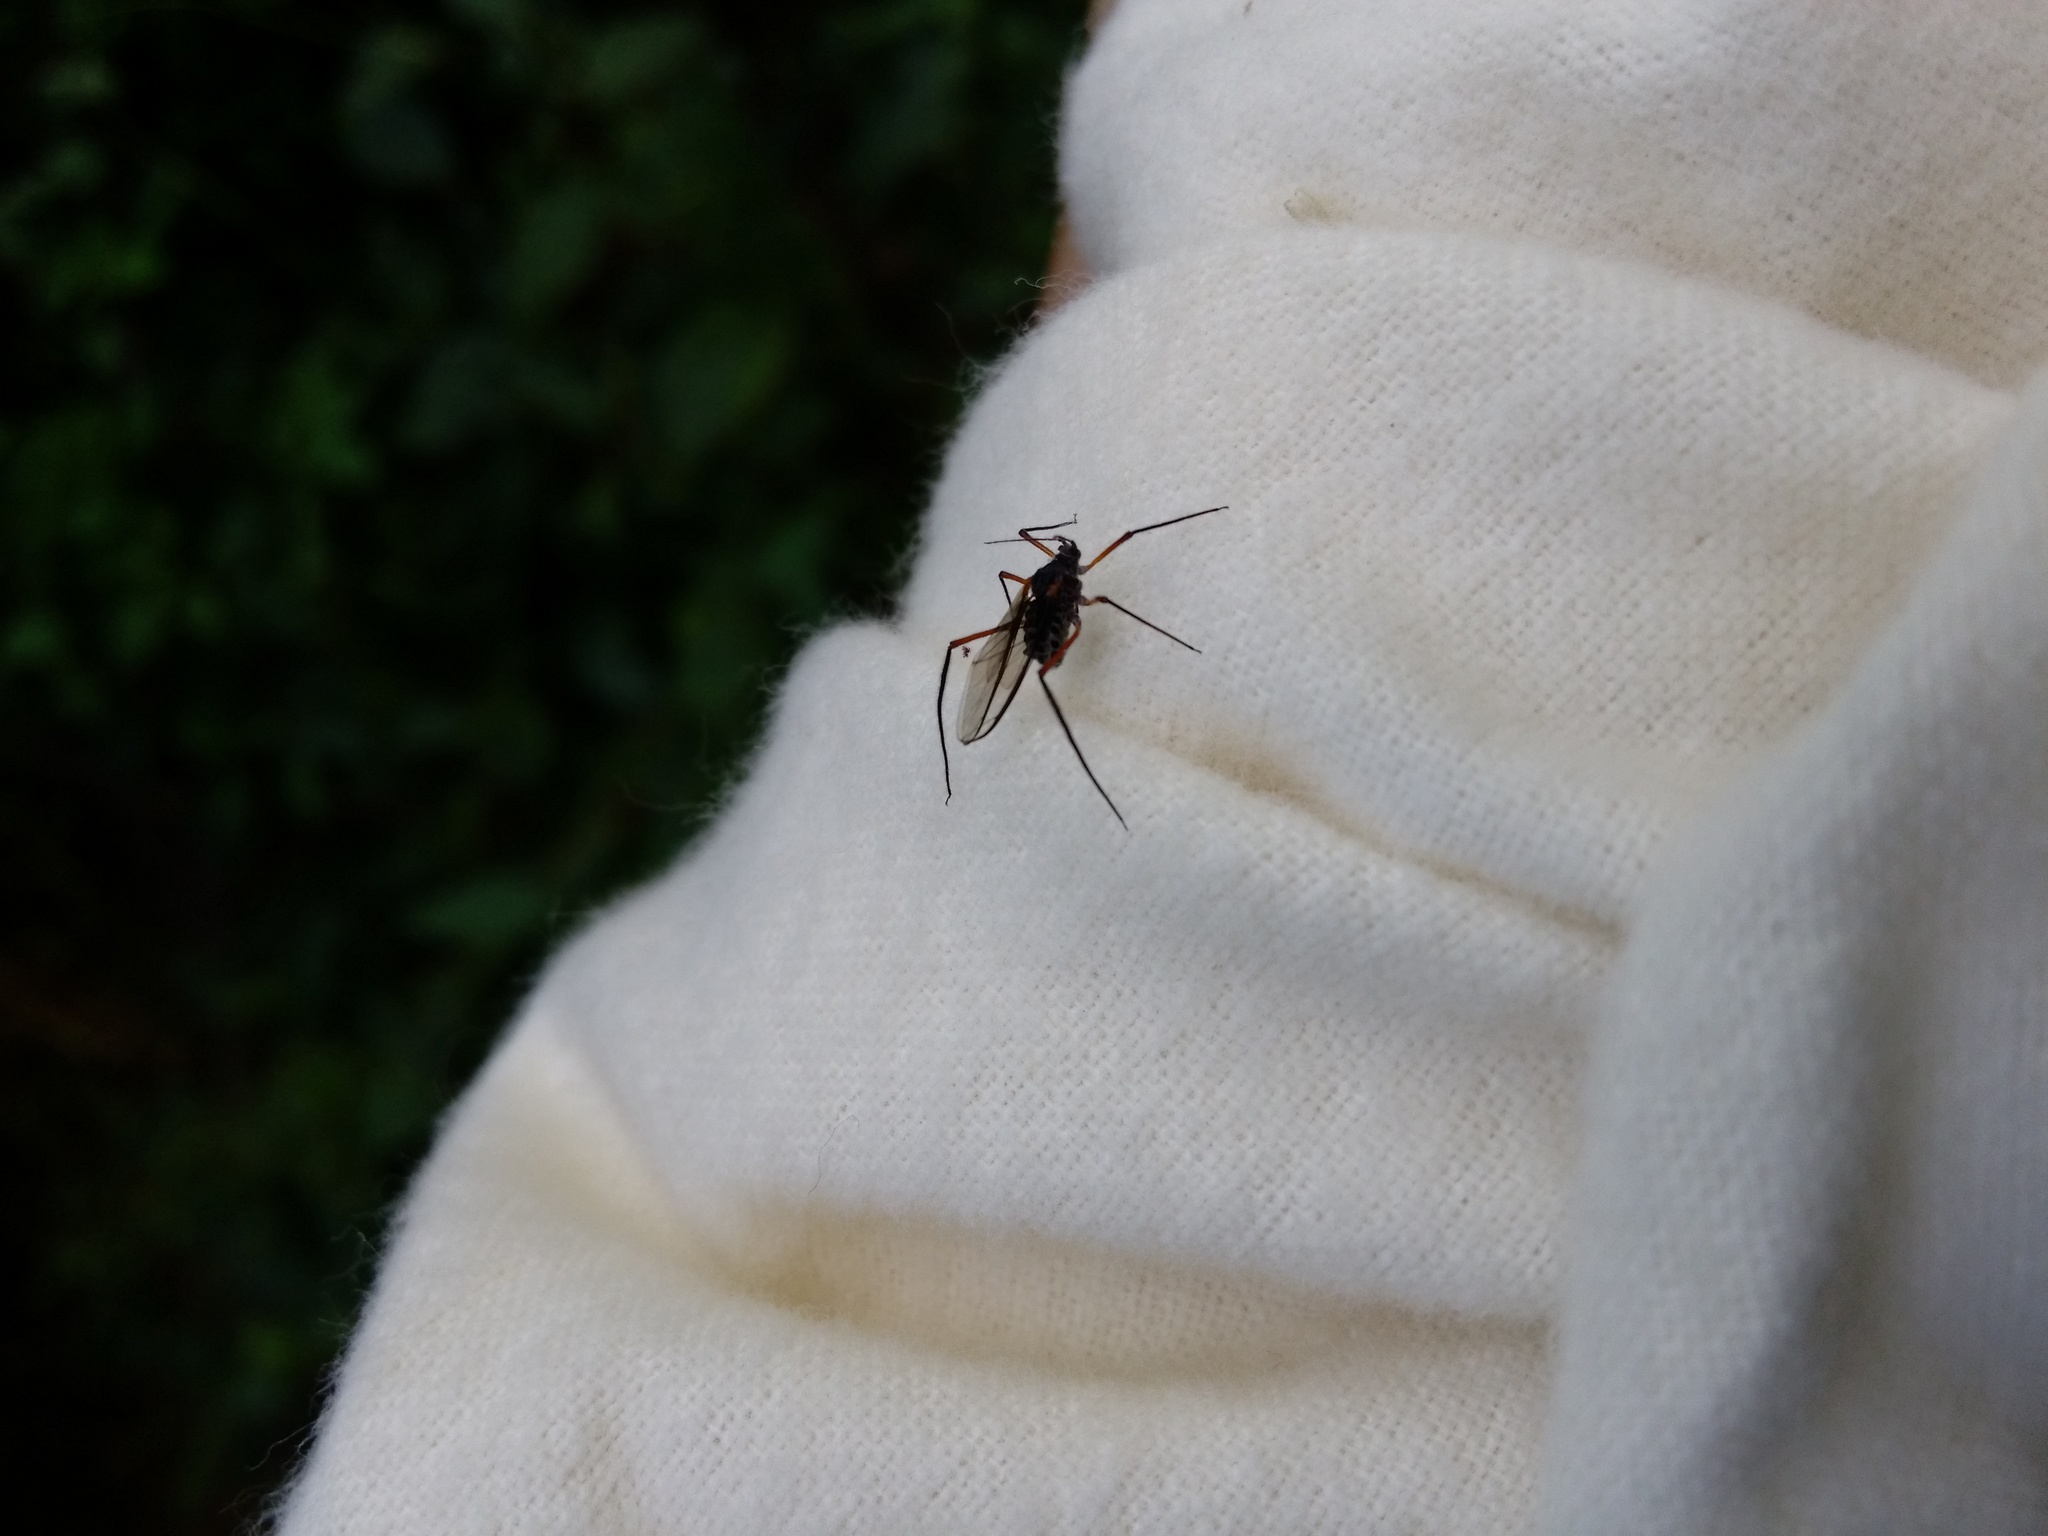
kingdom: Animalia
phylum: Arthropoda
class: Insecta
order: Hemiptera
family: Aphididae
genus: Longistigma
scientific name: Longistigma caryae
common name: Giant bark aphid
